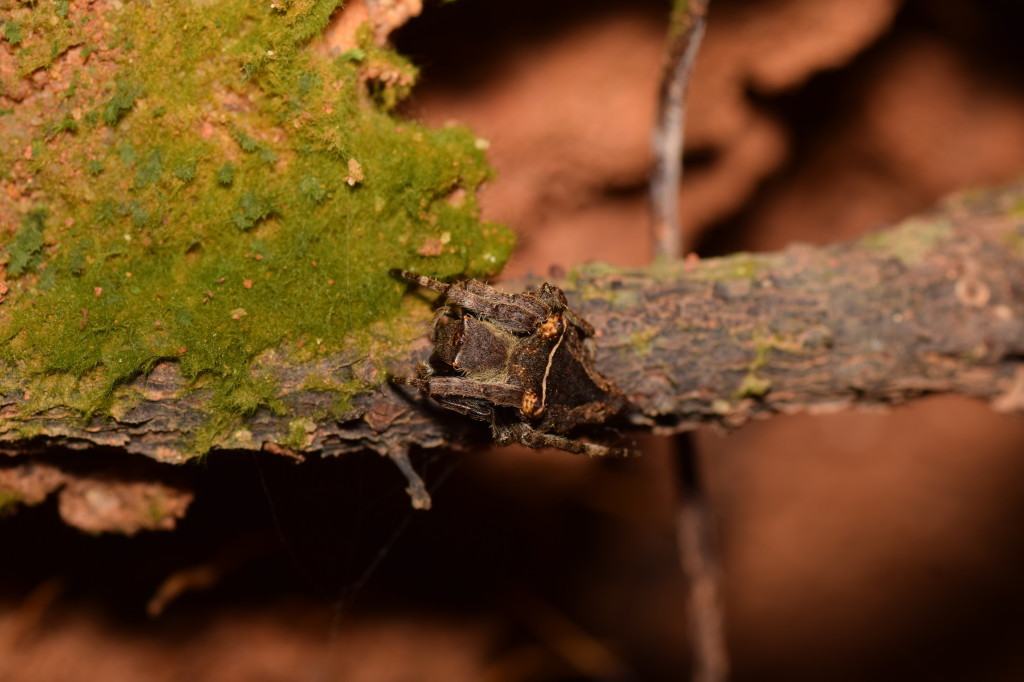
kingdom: Animalia
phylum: Arthropoda
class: Arachnida
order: Araneae
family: Araneidae
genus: Parawixia
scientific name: Parawixia dehaani
